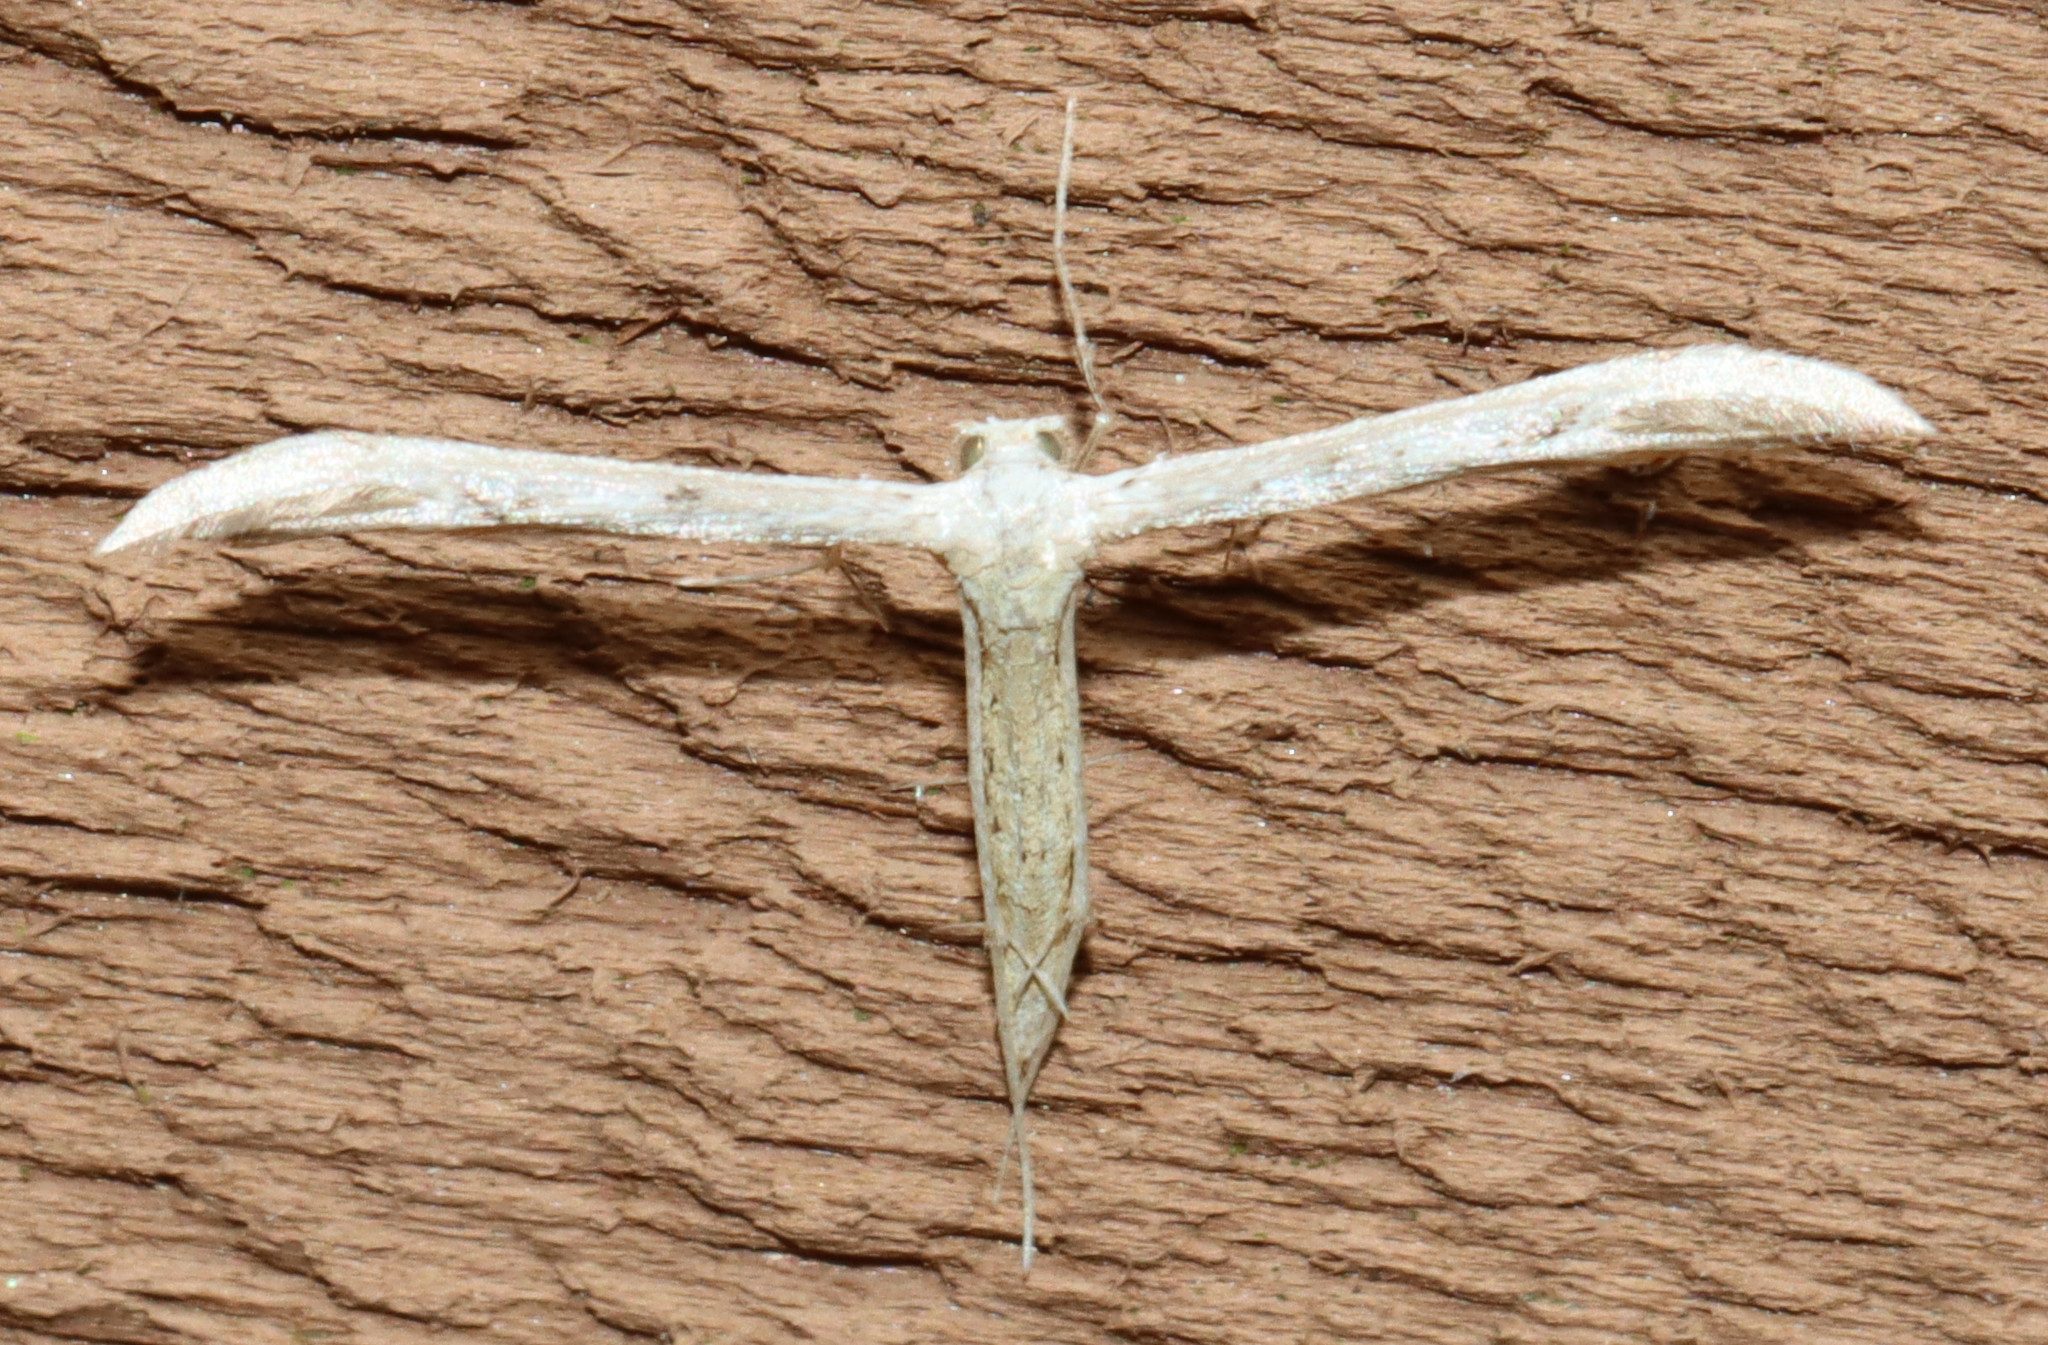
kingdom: Animalia
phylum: Arthropoda
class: Insecta
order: Lepidoptera
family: Pterophoridae
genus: Pselnophorus
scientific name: Pselnophorus belfragei
